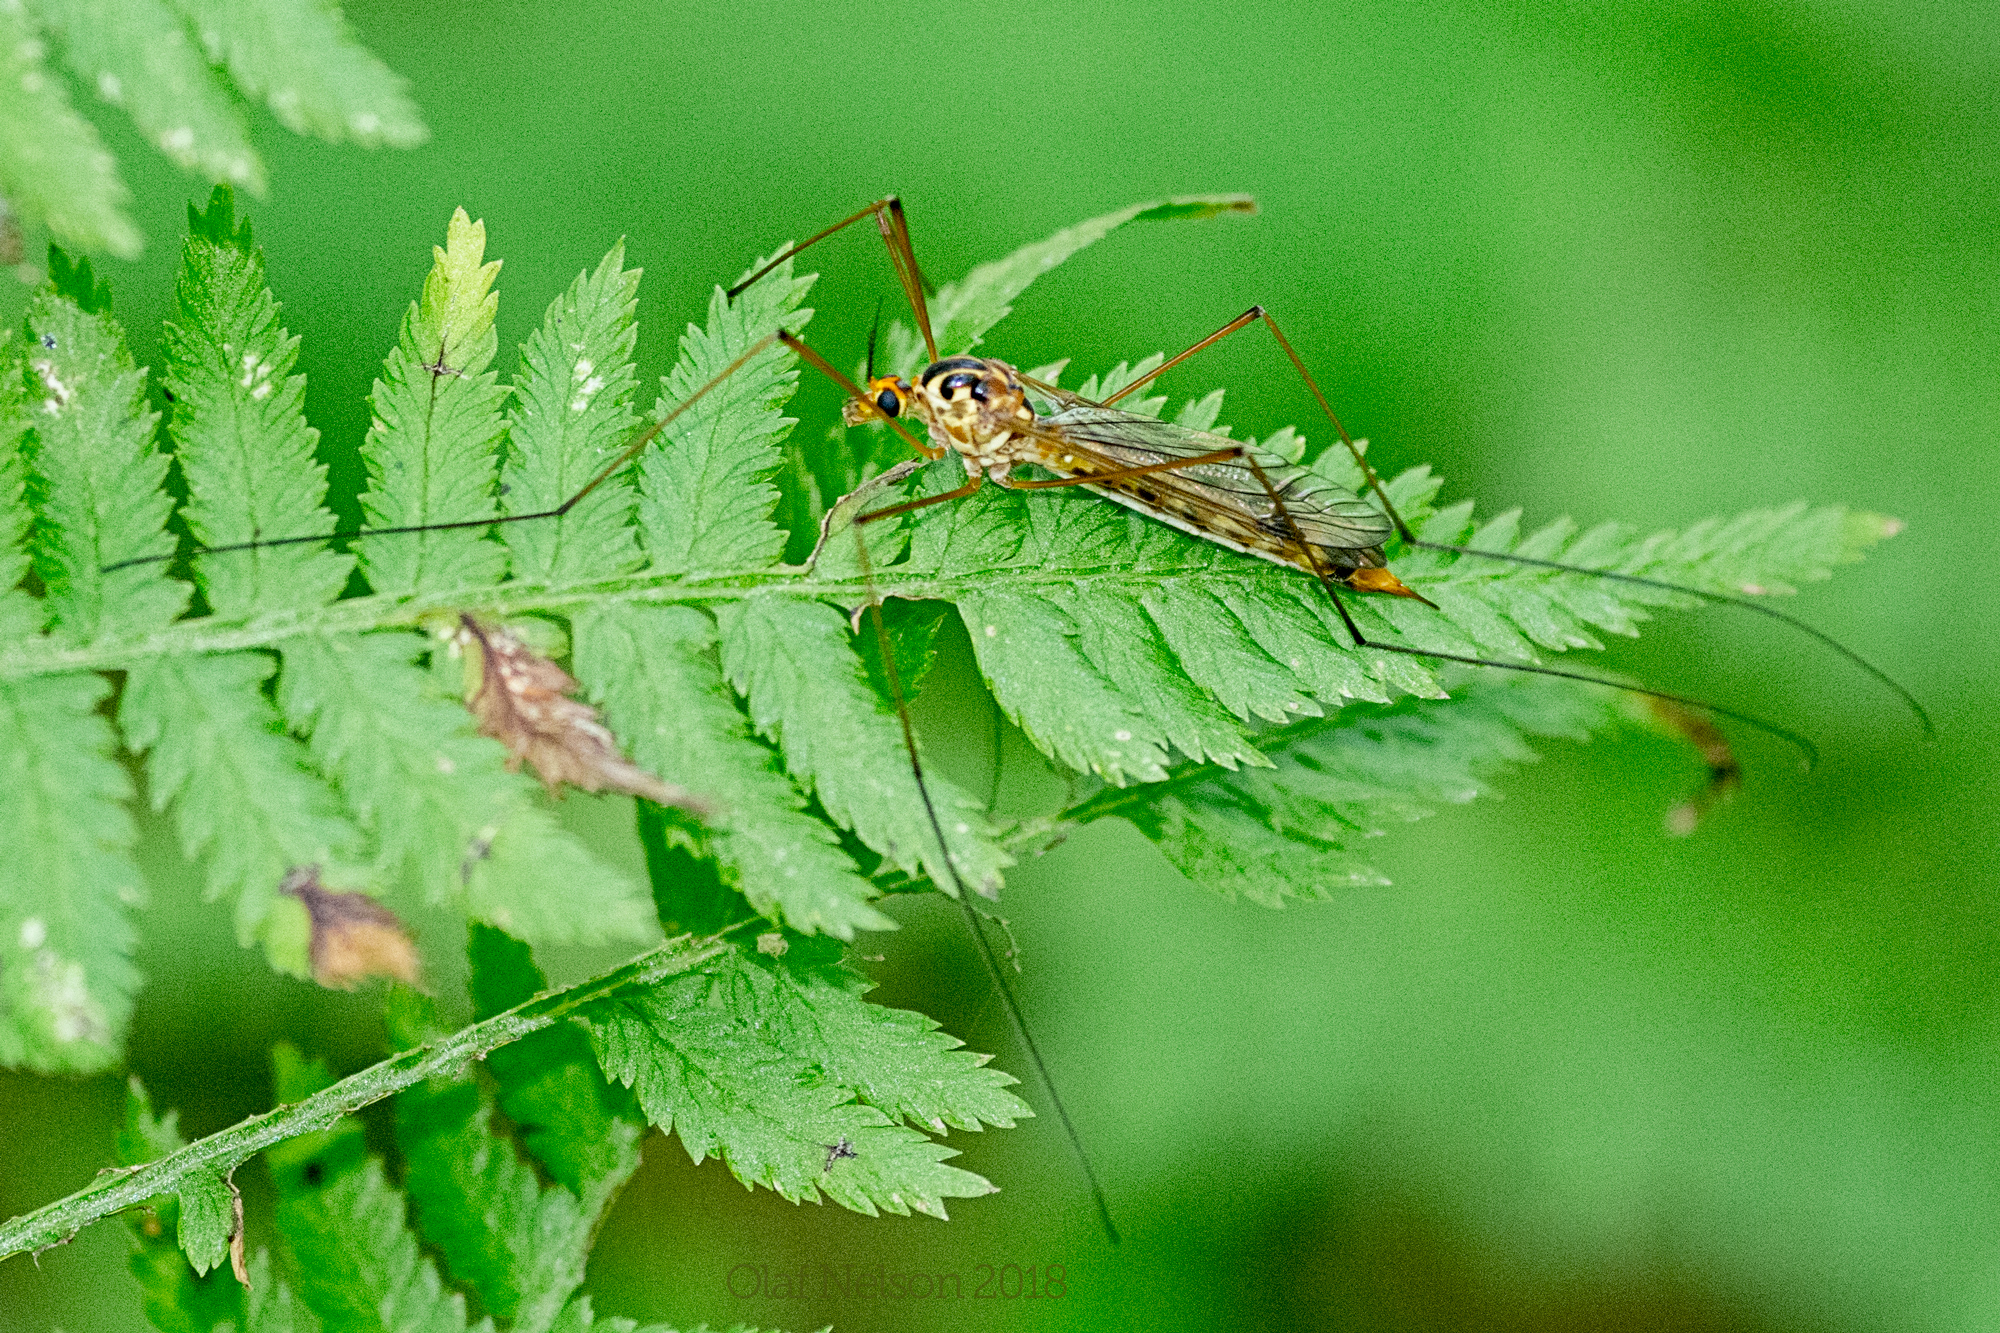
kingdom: Animalia
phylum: Arthropoda
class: Insecta
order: Diptera
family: Tipulidae
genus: Nephrotoma
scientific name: Nephrotoma alterna
